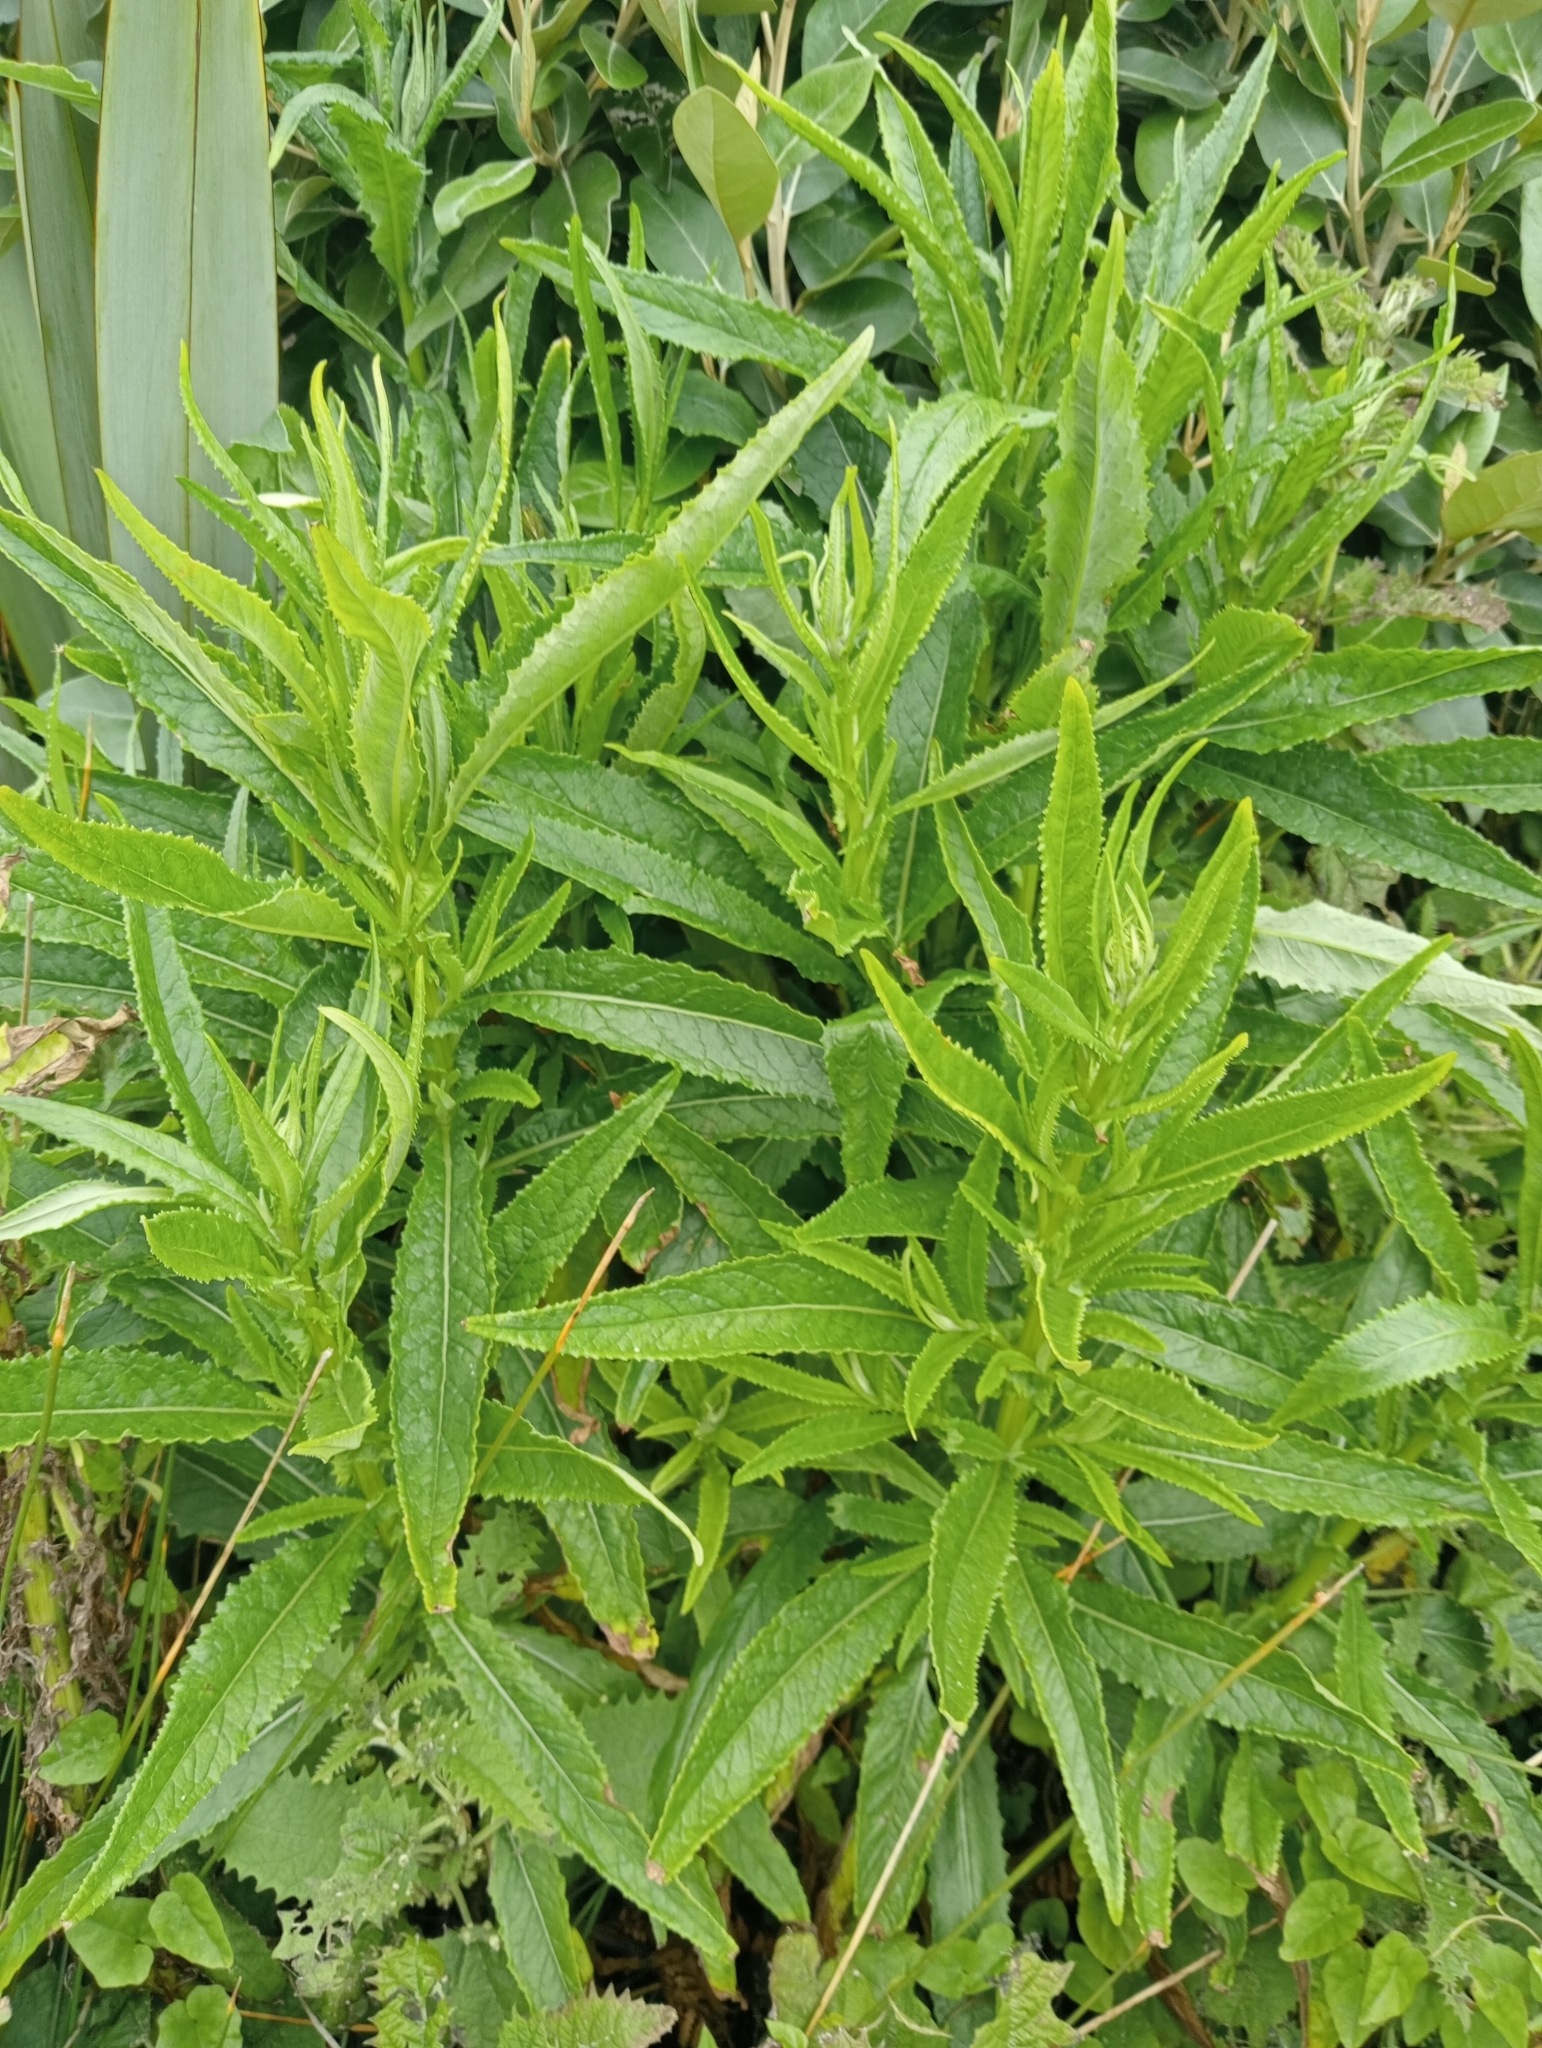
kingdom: Plantae
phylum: Tracheophyta
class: Magnoliopsida
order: Asterales
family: Asteraceae
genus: Senecio
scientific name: Senecio minimus
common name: Toothed fireweed
